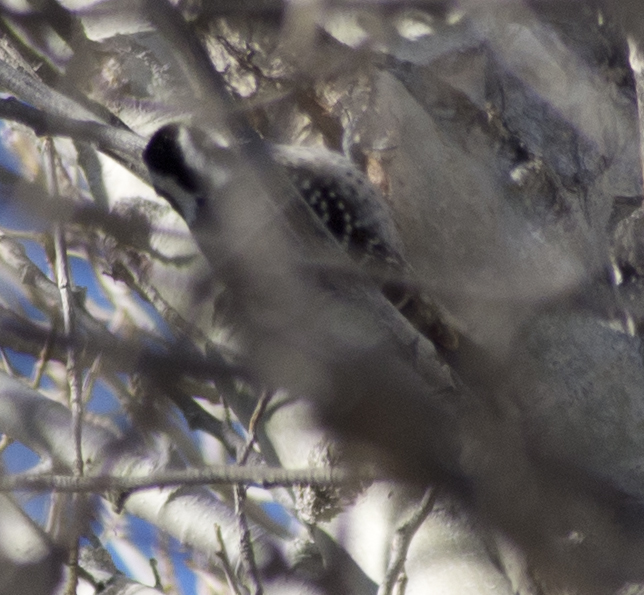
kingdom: Animalia
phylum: Chordata
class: Aves
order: Piciformes
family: Picidae
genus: Dryobates
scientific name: Dryobates nuttallii
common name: Nuttall's woodpecker
